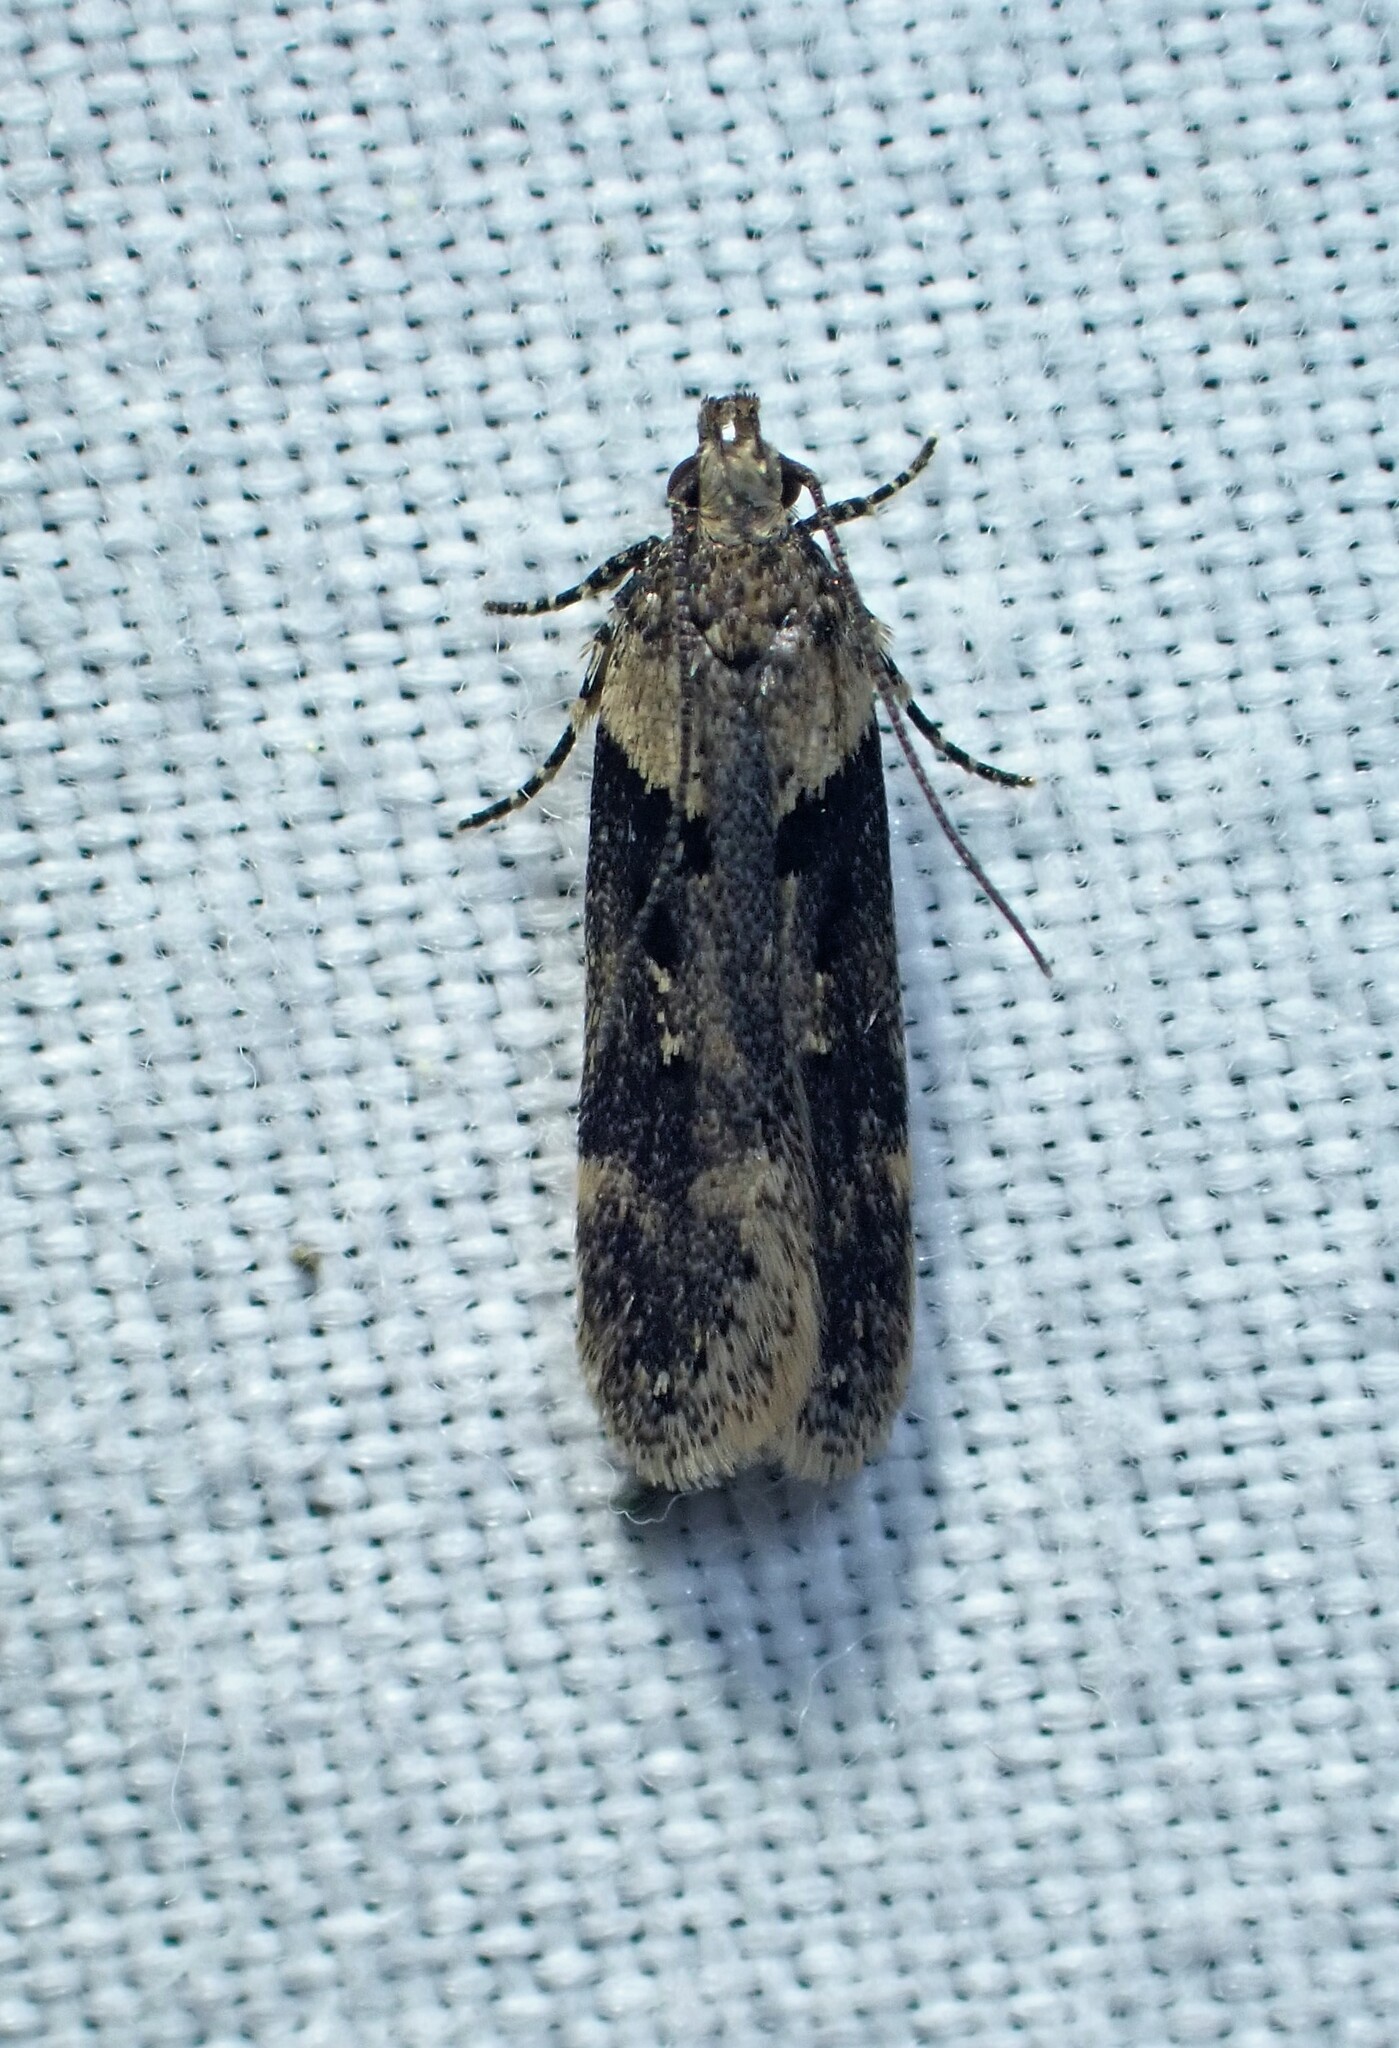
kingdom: Animalia
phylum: Arthropoda
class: Insecta
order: Lepidoptera
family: Gelechiidae
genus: Chionodes
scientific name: Chionodes mediofuscella
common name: Black-smudged chionodes moth
